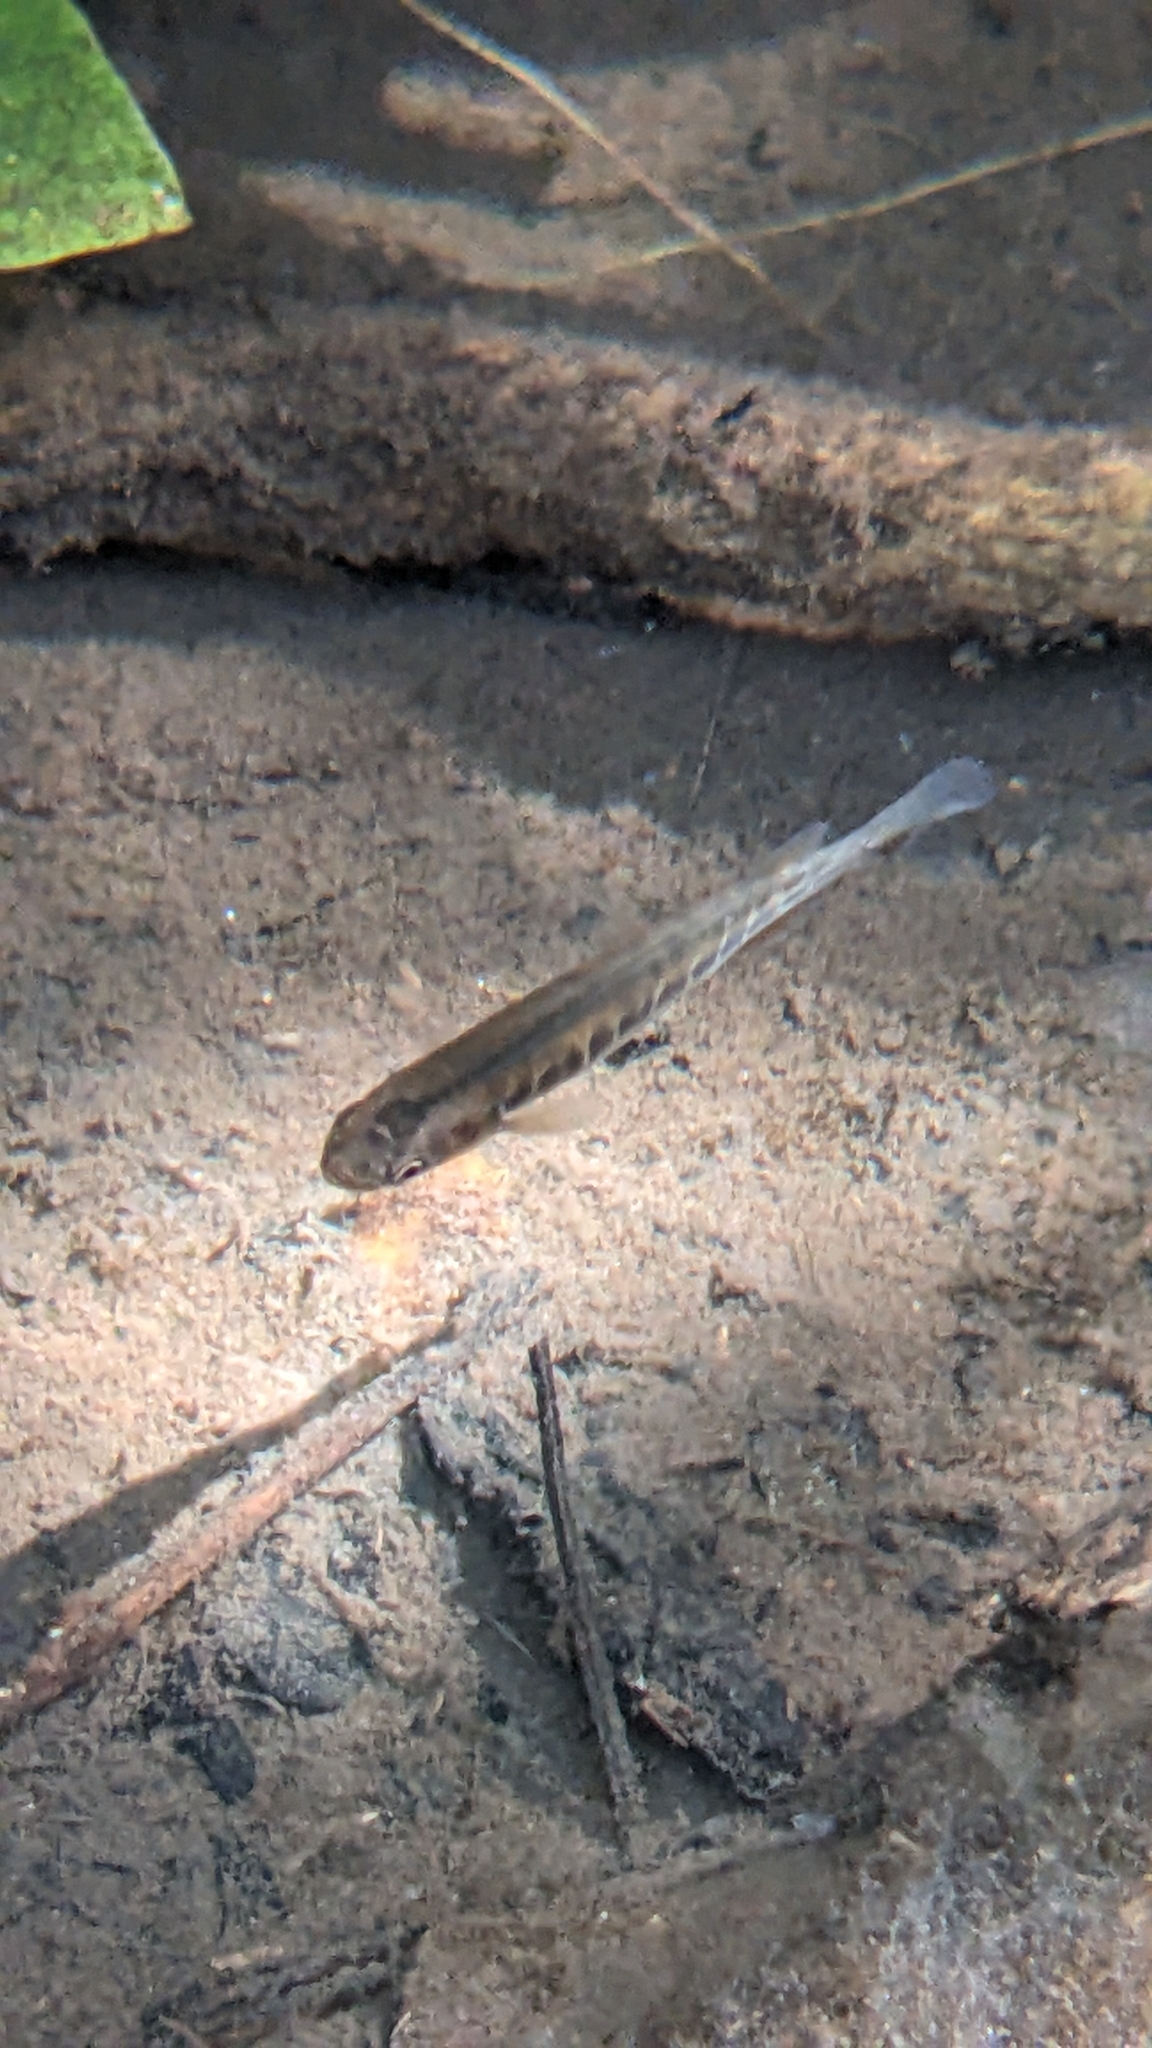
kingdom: Animalia
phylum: Chordata
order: Osmeriformes
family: Galaxiidae
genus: Galaxias
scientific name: Galaxias fasciatus
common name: Banded kokopu
